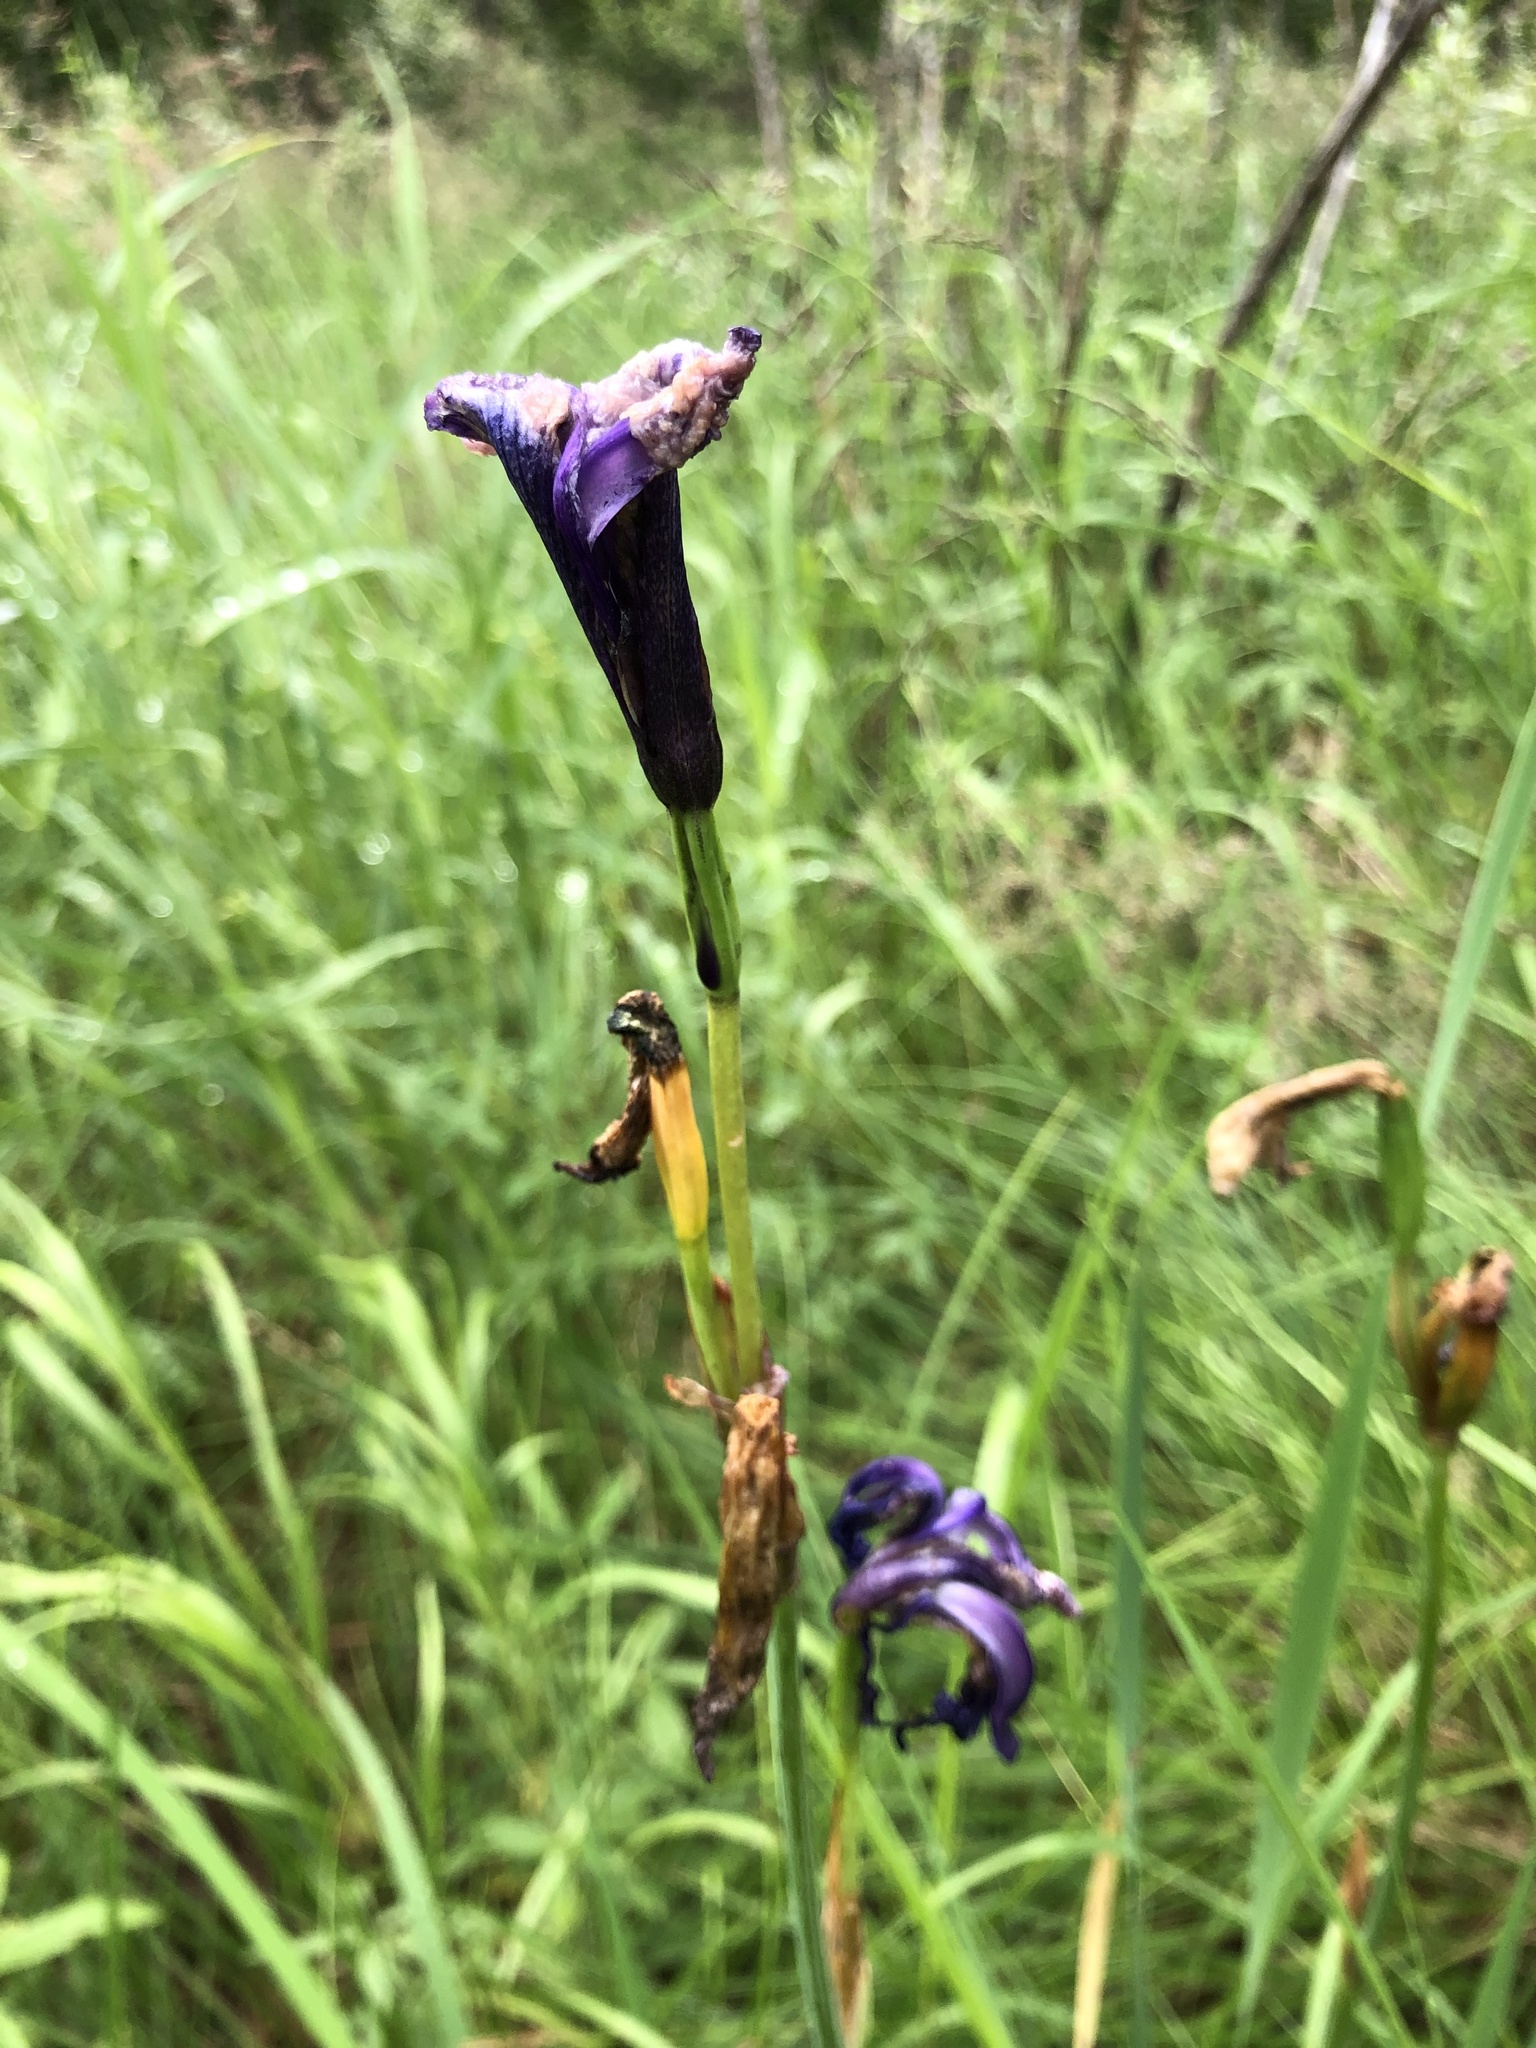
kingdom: Plantae
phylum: Tracheophyta
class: Liliopsida
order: Asparagales
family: Iridaceae
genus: Iris
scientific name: Iris sibirica
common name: Siberian iris
